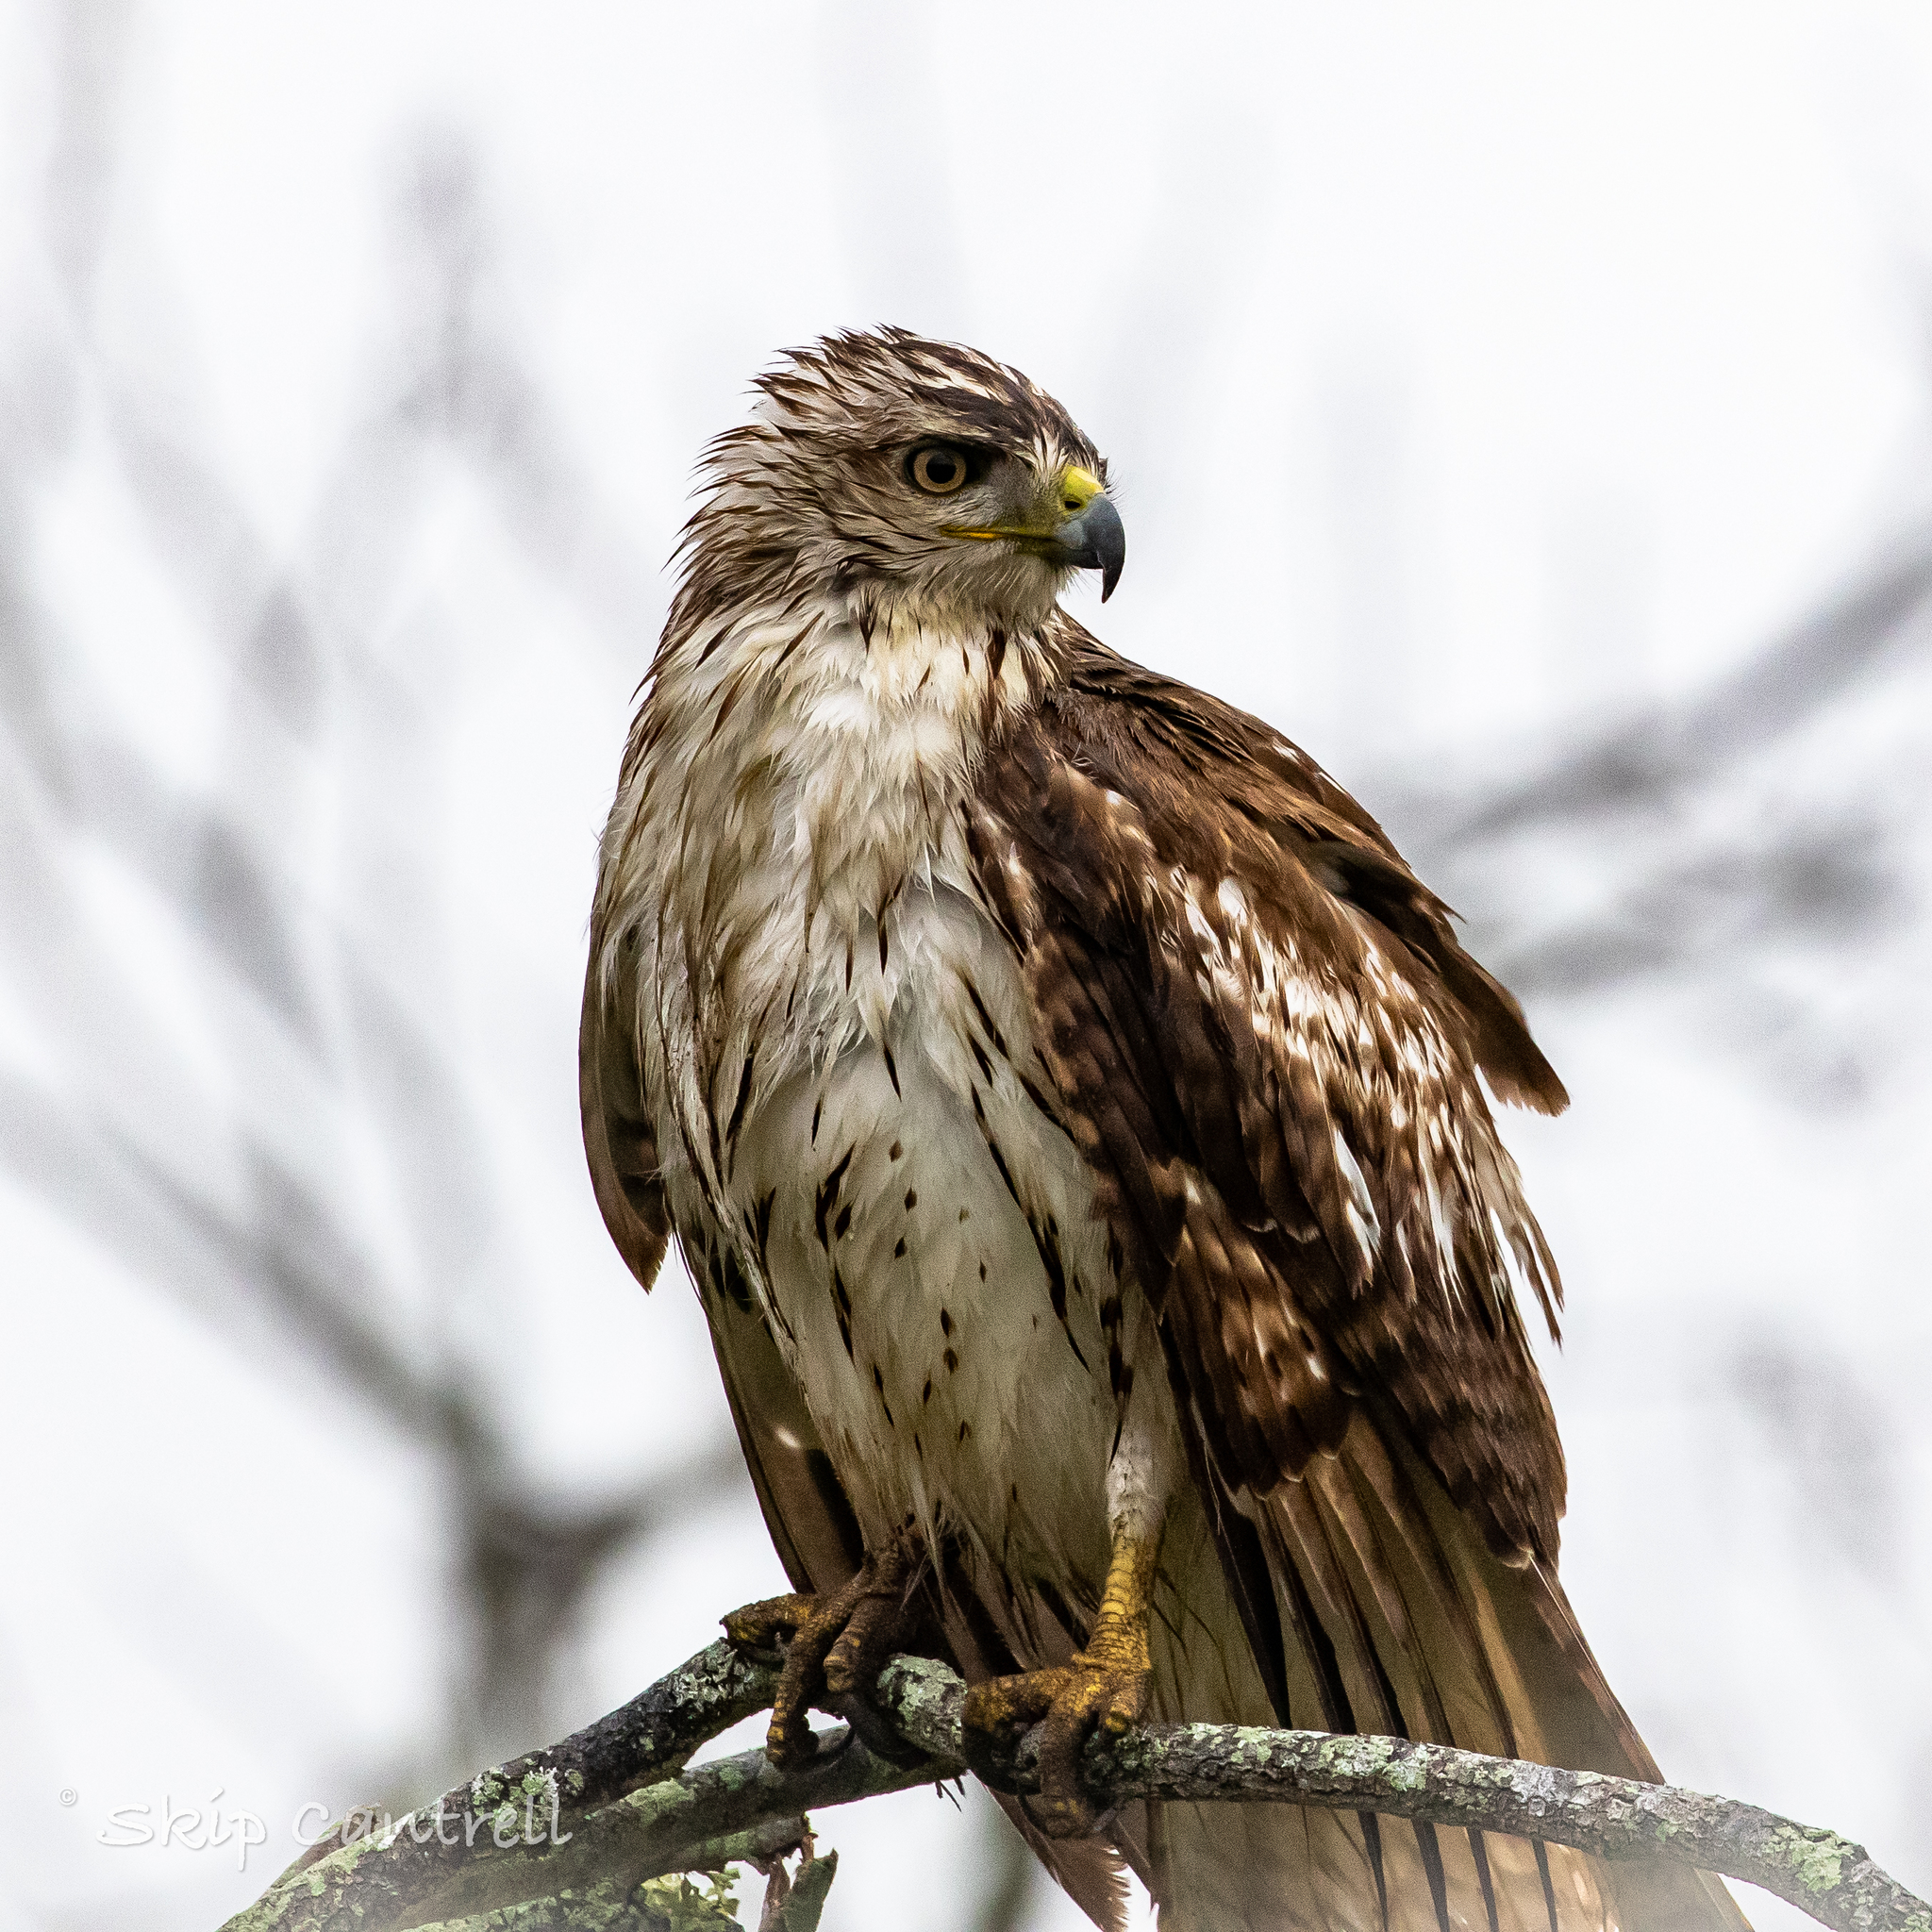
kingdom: Animalia
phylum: Chordata
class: Aves
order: Accipitriformes
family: Accipitridae
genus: Buteo
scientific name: Buteo jamaicensis
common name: Red-tailed hawk
